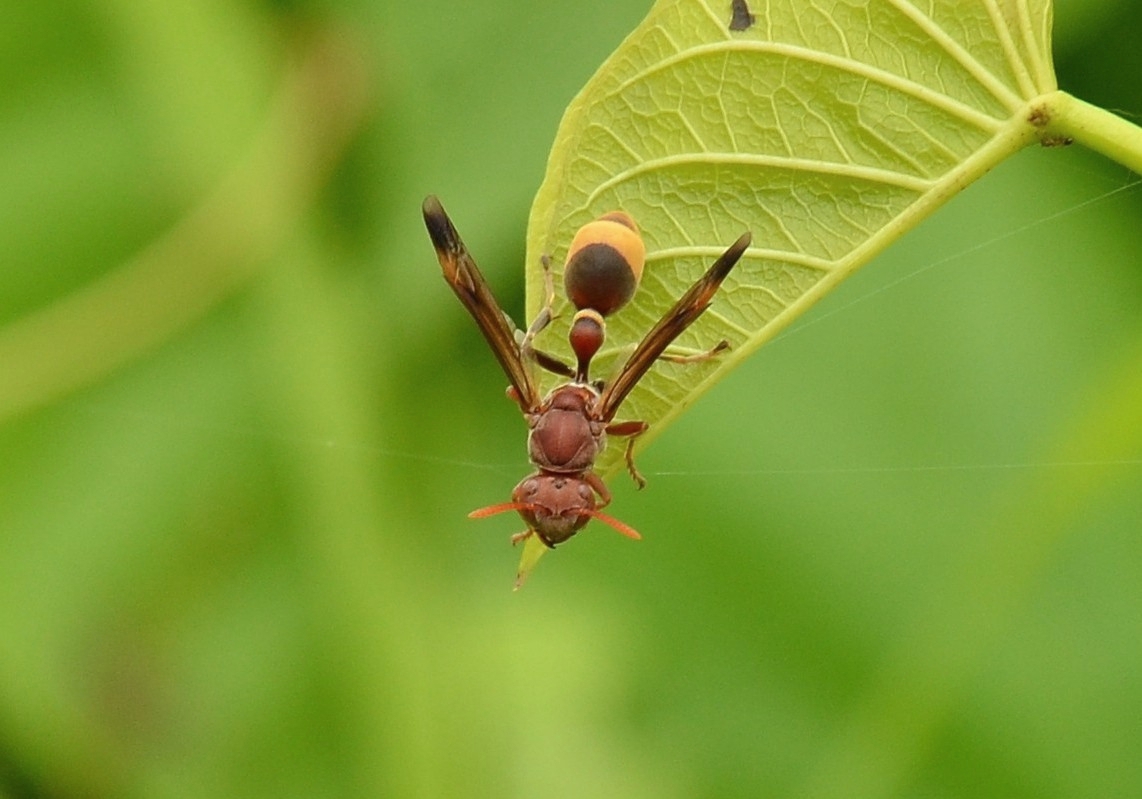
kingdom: Animalia
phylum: Arthropoda
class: Insecta
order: Hymenoptera
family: Vespidae
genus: Ropalidia
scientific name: Ropalidia
